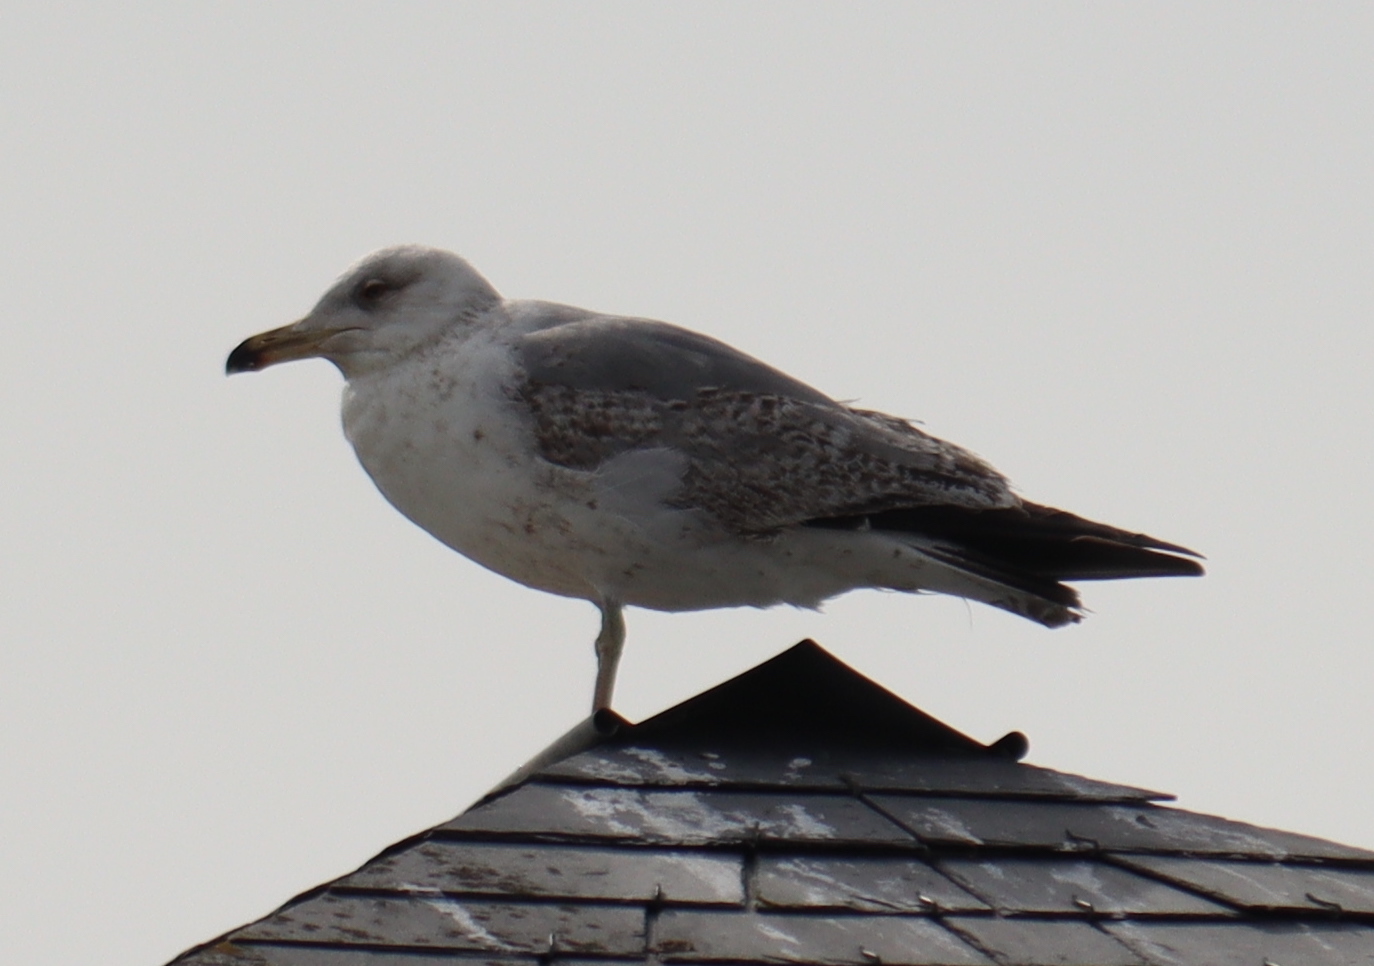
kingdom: Animalia
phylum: Chordata
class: Aves
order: Charadriiformes
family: Laridae
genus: Larus
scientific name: Larus argentatus
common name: Herring gull
